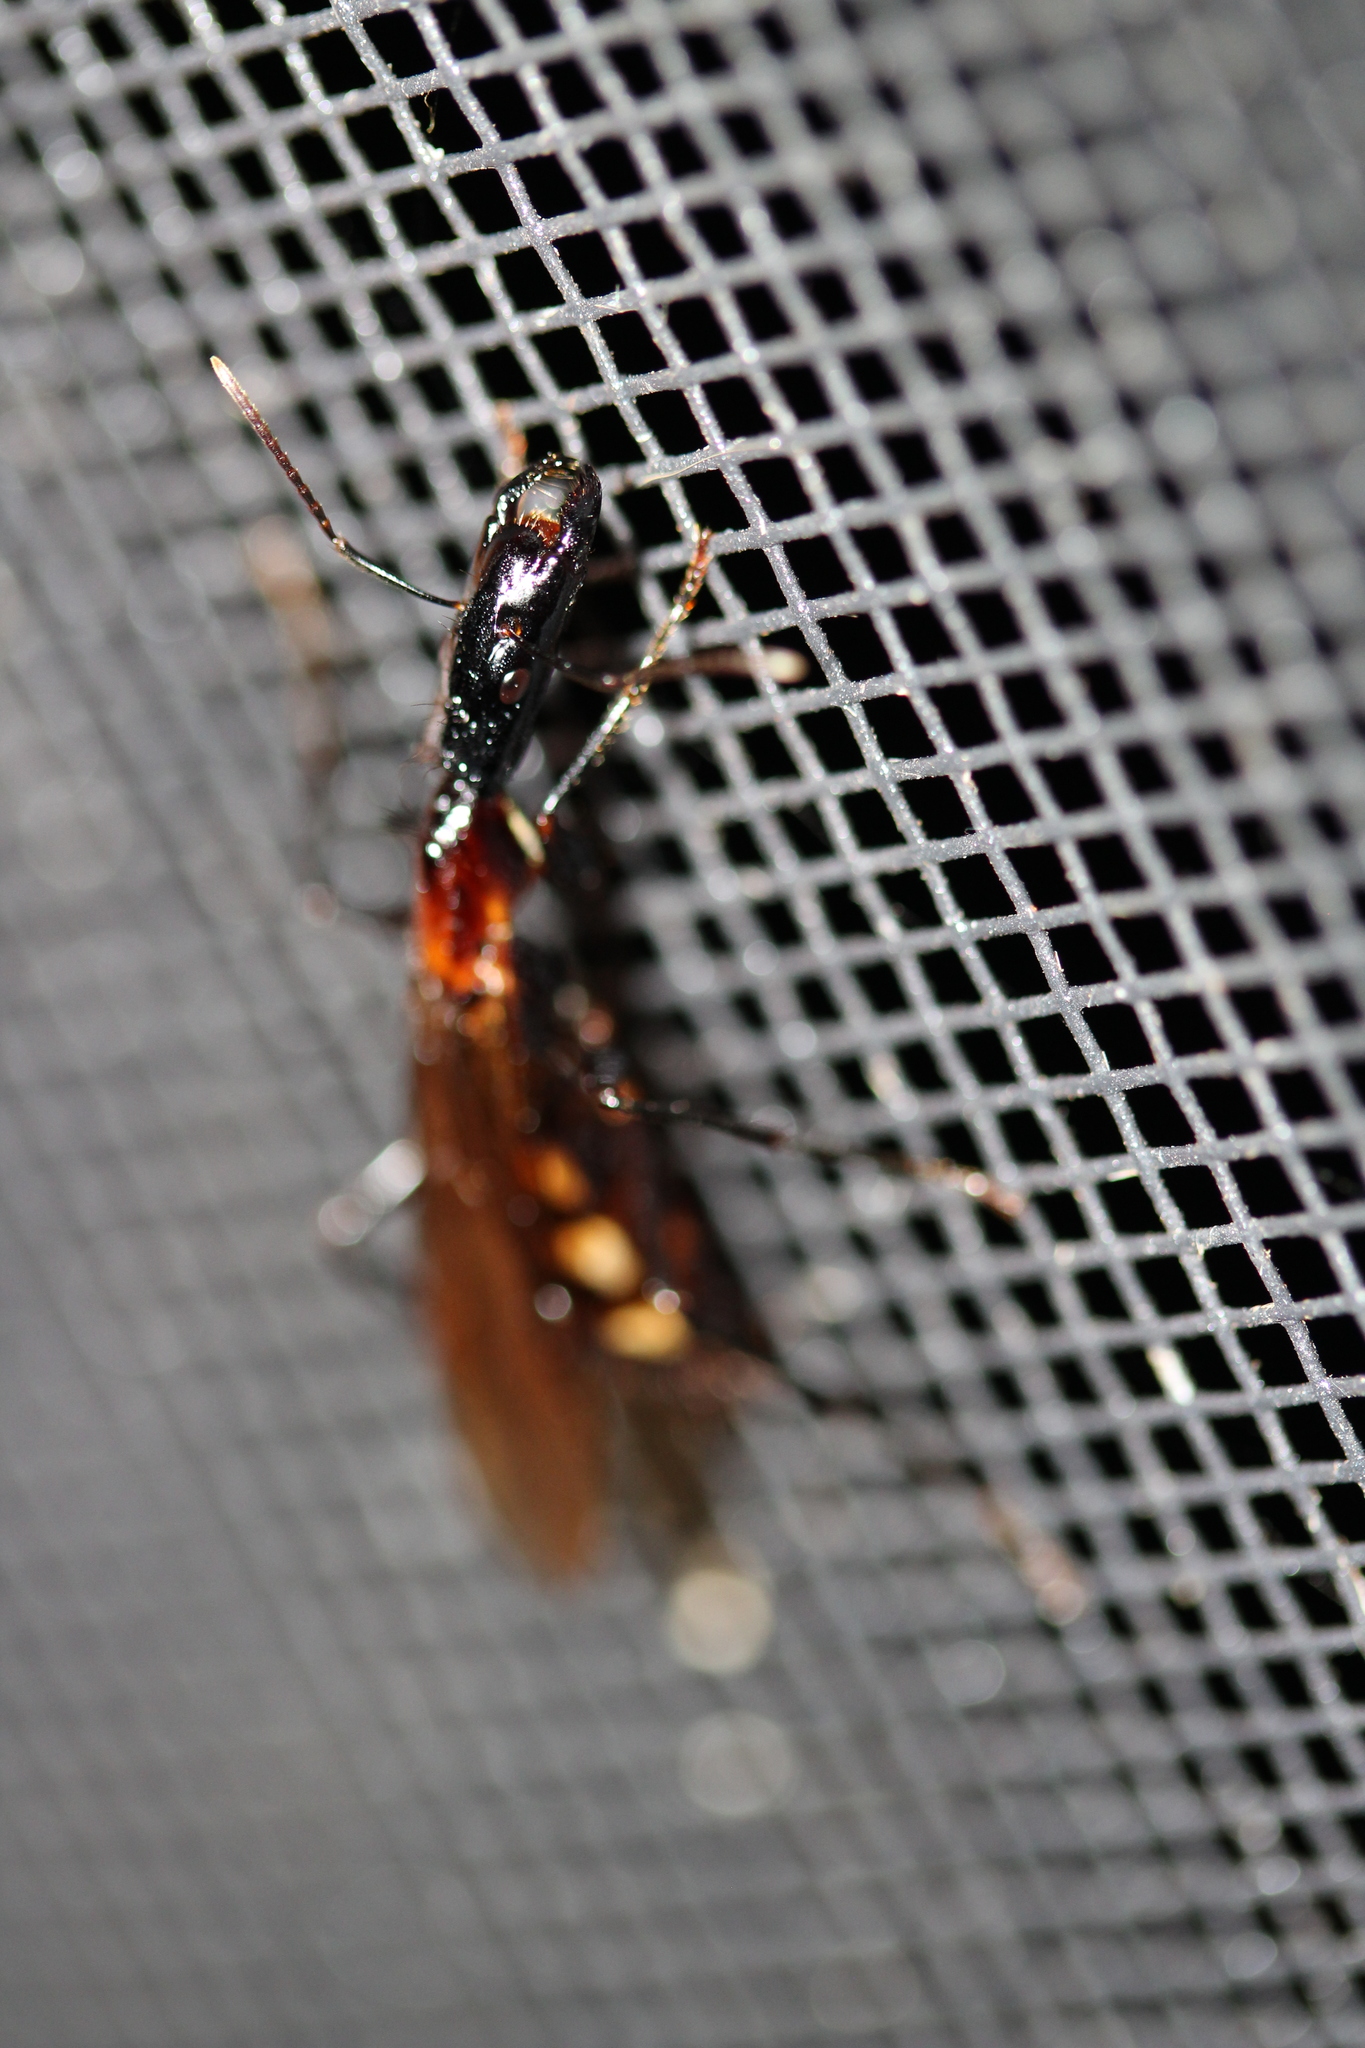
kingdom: Animalia
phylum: Arthropoda
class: Insecta
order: Hymenoptera
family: Formicidae
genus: Camponotus
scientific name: Camponotus mirabilis
